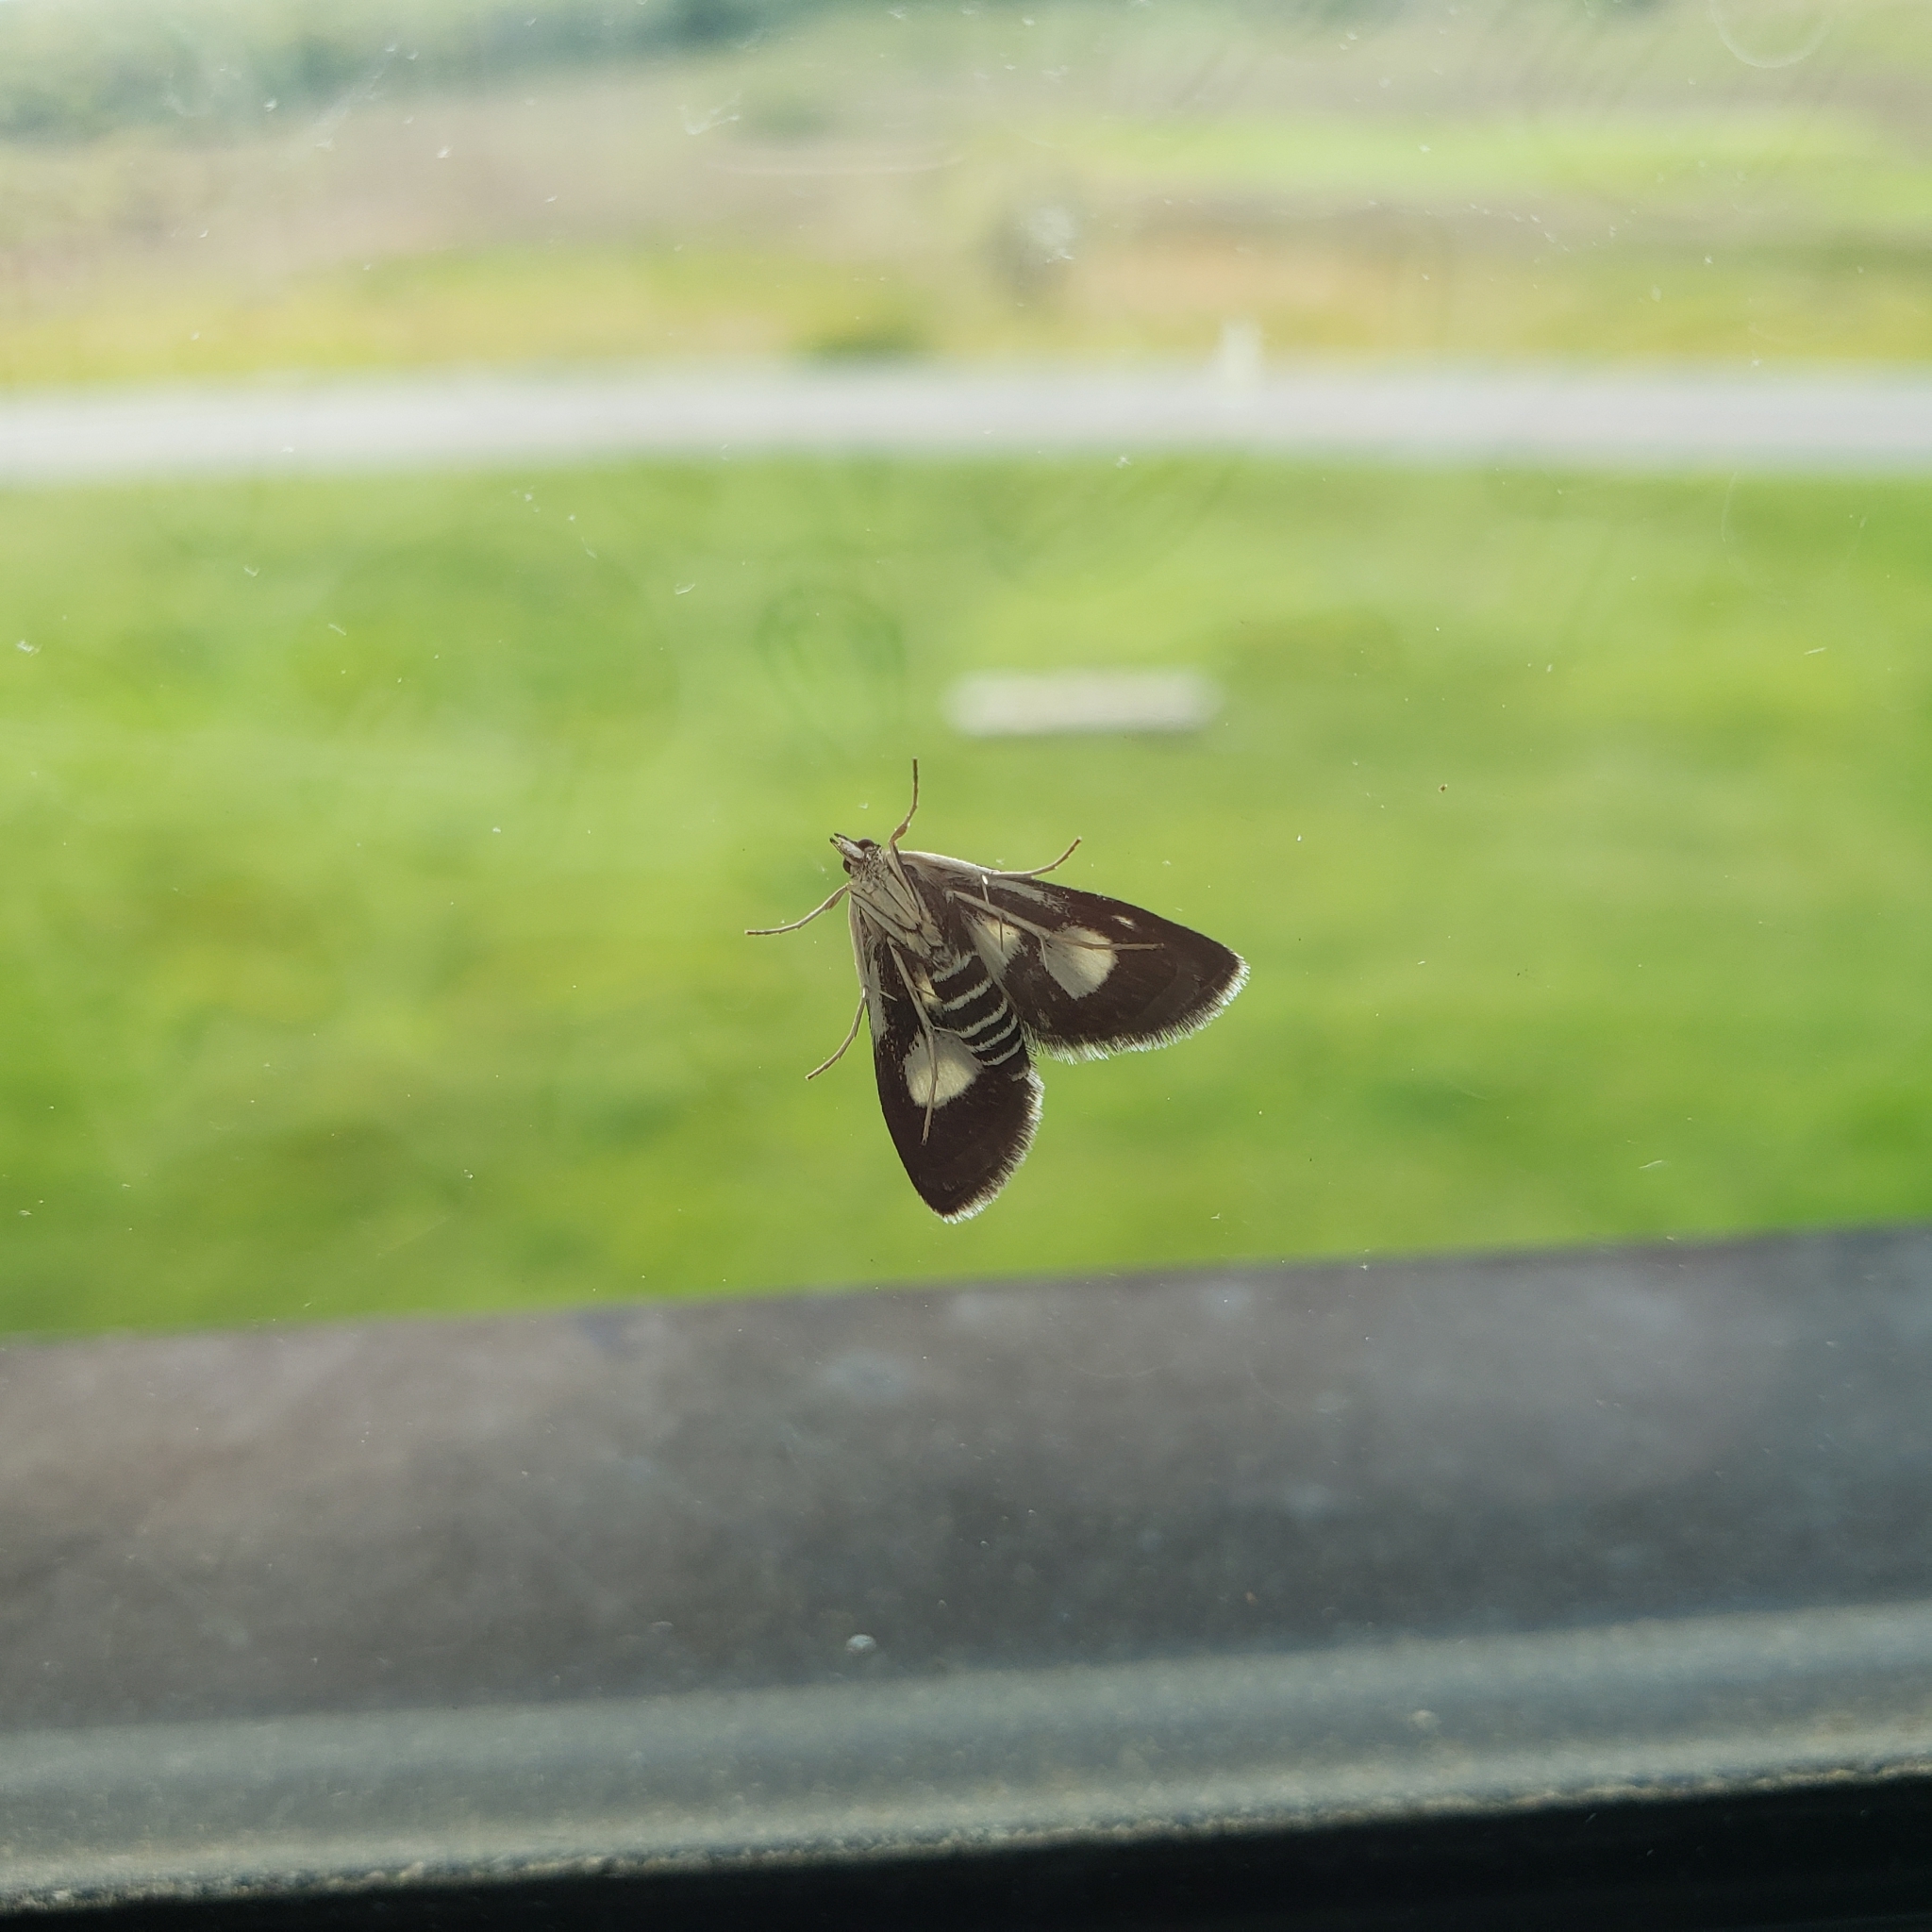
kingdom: Animalia
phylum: Arthropoda
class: Insecta
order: Lepidoptera
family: Crambidae
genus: Anania
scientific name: Anania funebris
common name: White-spotted sable moth
